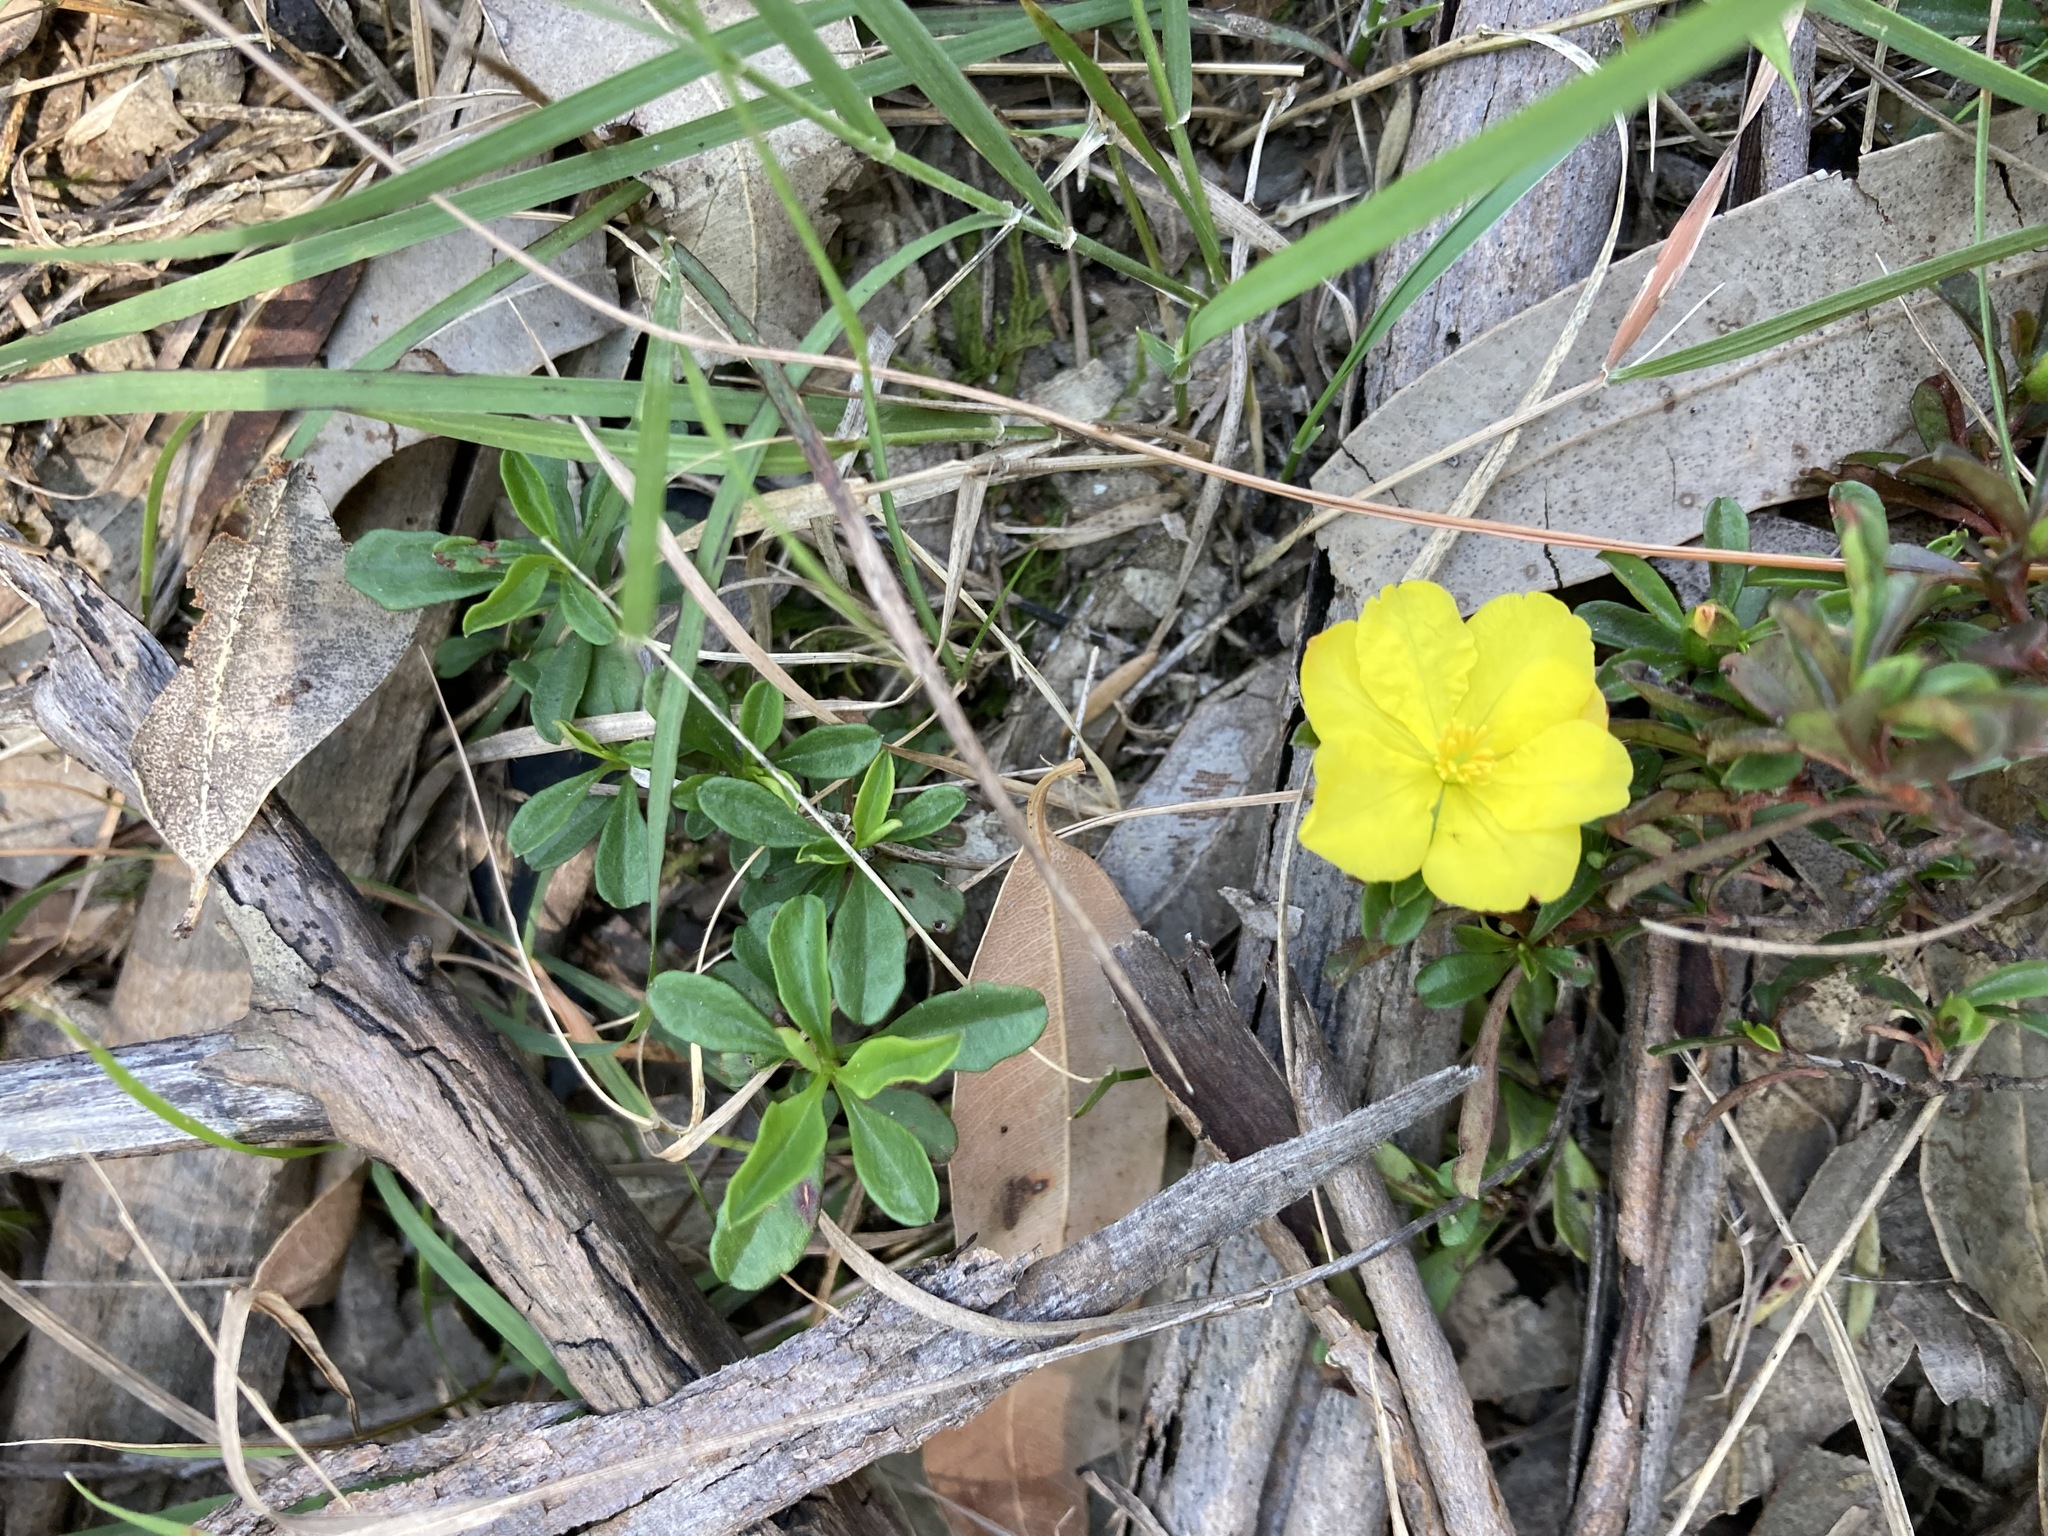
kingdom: Plantae
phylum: Tracheophyta
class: Magnoliopsida
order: Dilleniales
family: Dilleniaceae
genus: Hibbertia
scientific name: Hibbertia diffusa
